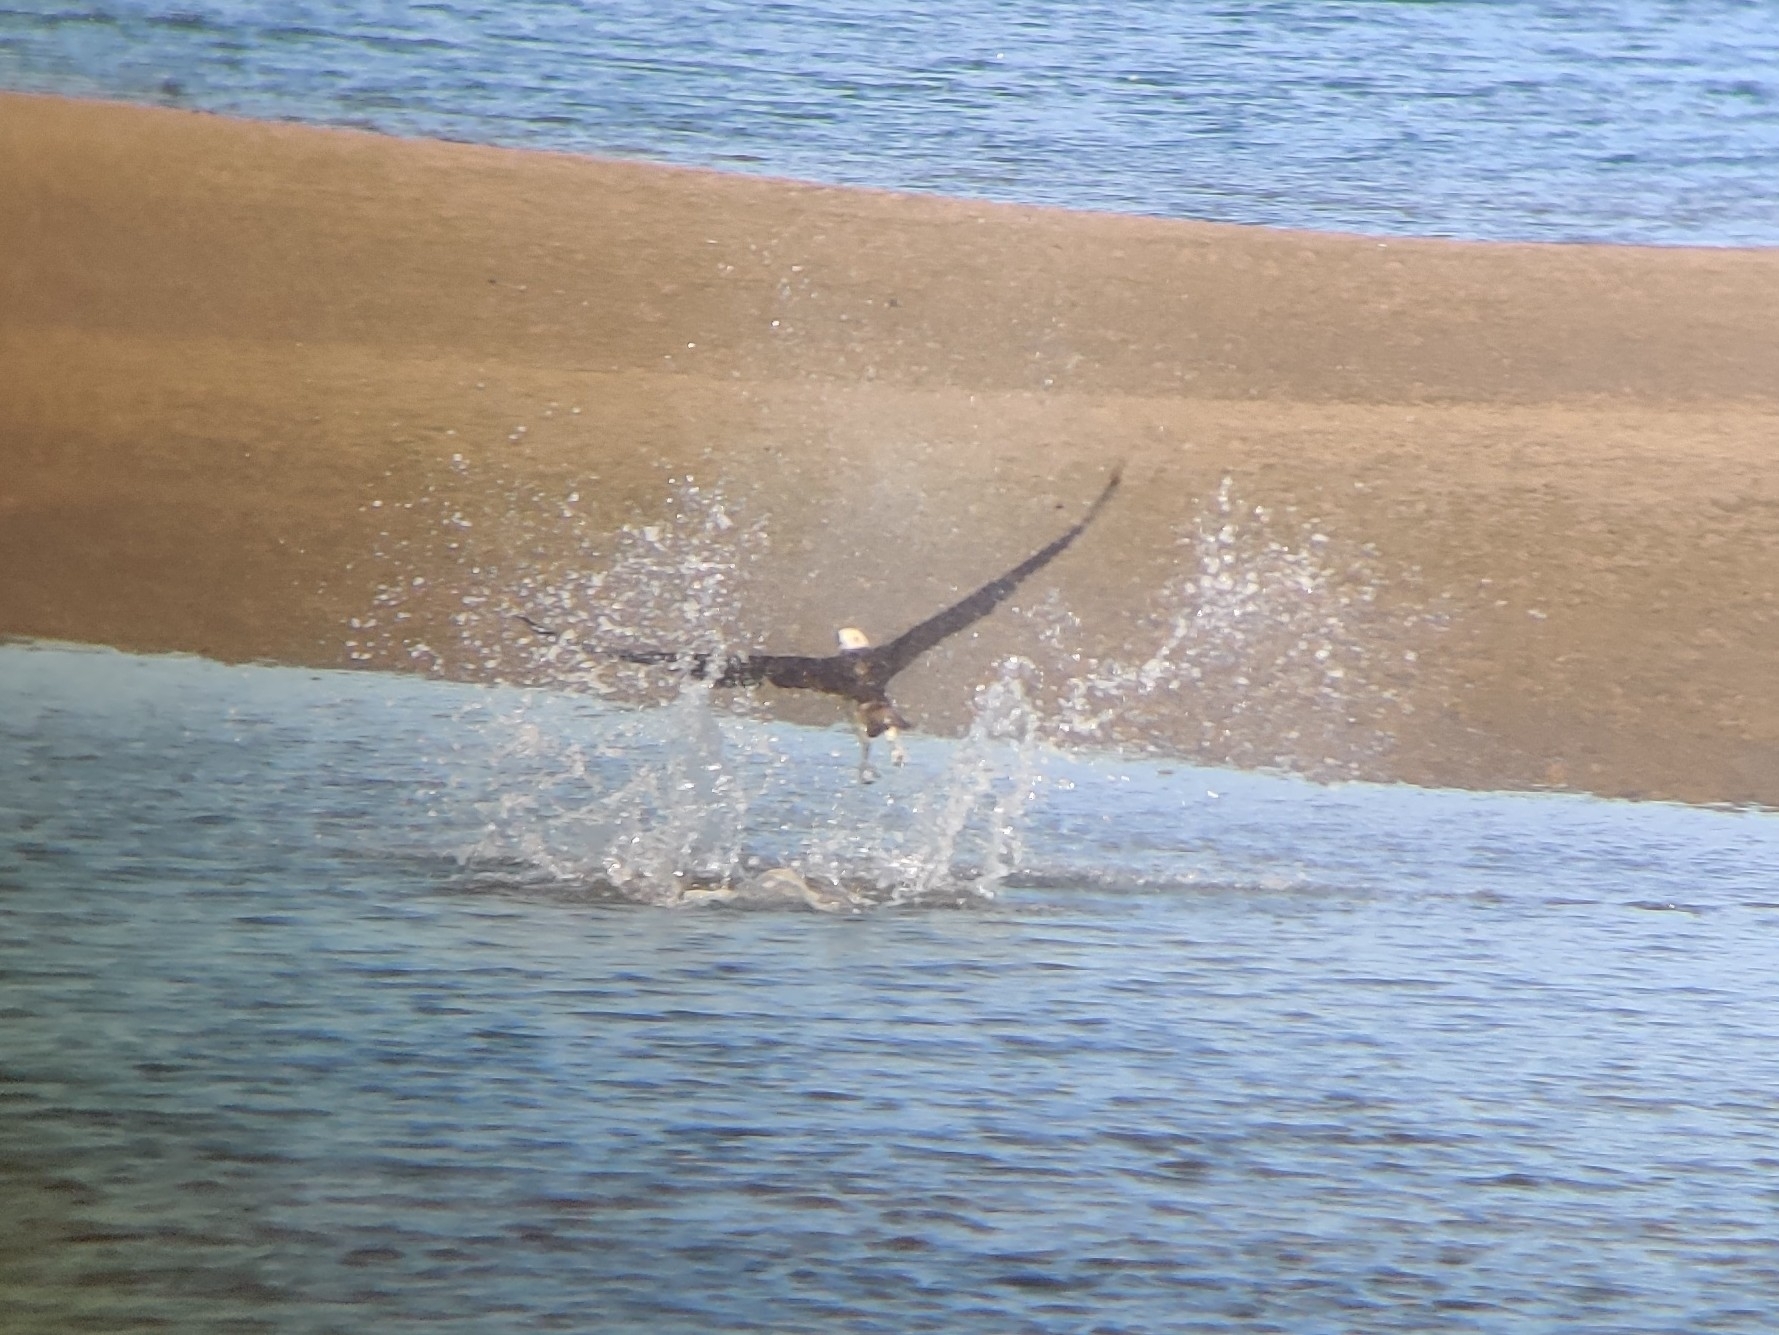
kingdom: Animalia
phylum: Chordata
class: Aves
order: Accipitriformes
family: Pandionidae
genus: Pandion
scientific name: Pandion haliaetus
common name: Osprey
